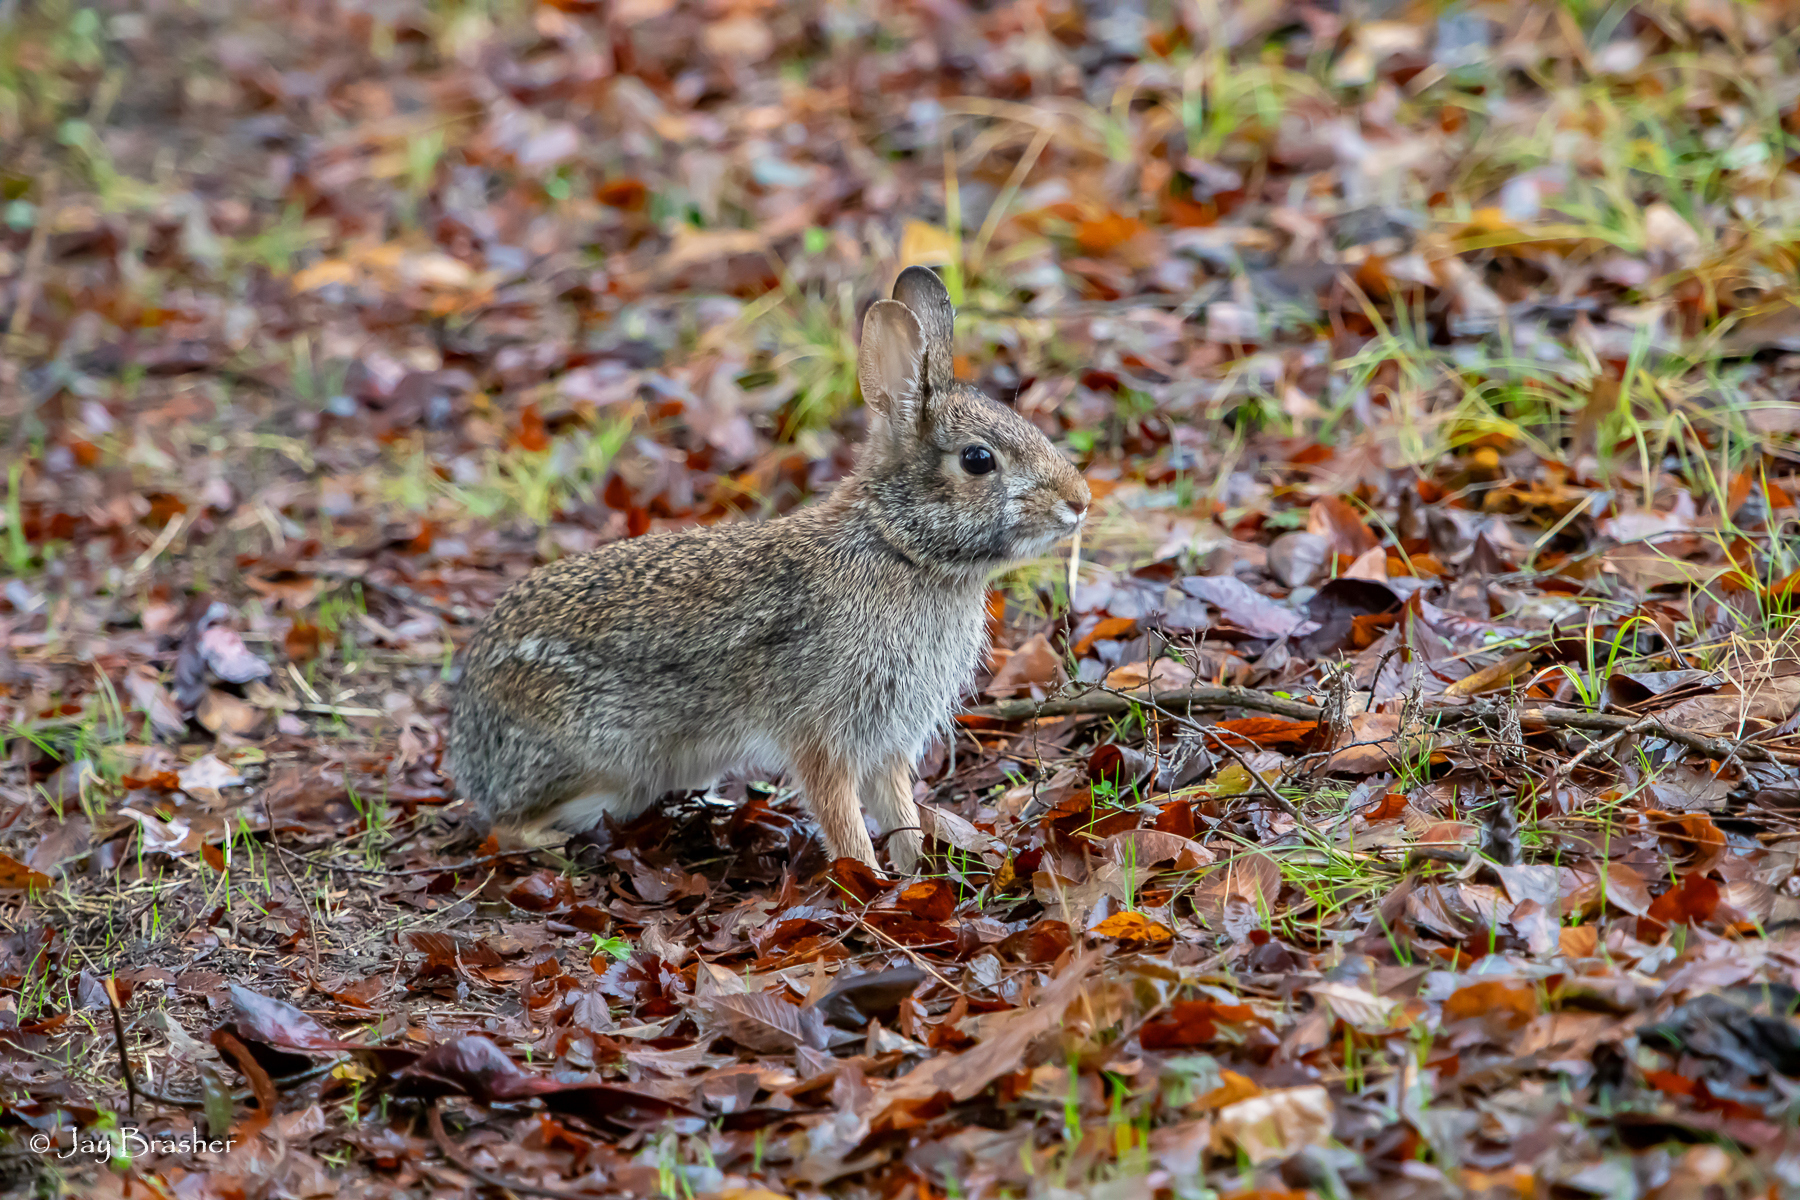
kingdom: Animalia
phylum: Chordata
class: Mammalia
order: Lagomorpha
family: Leporidae
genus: Sylvilagus
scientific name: Sylvilagus floridanus
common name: Eastern cottontail
